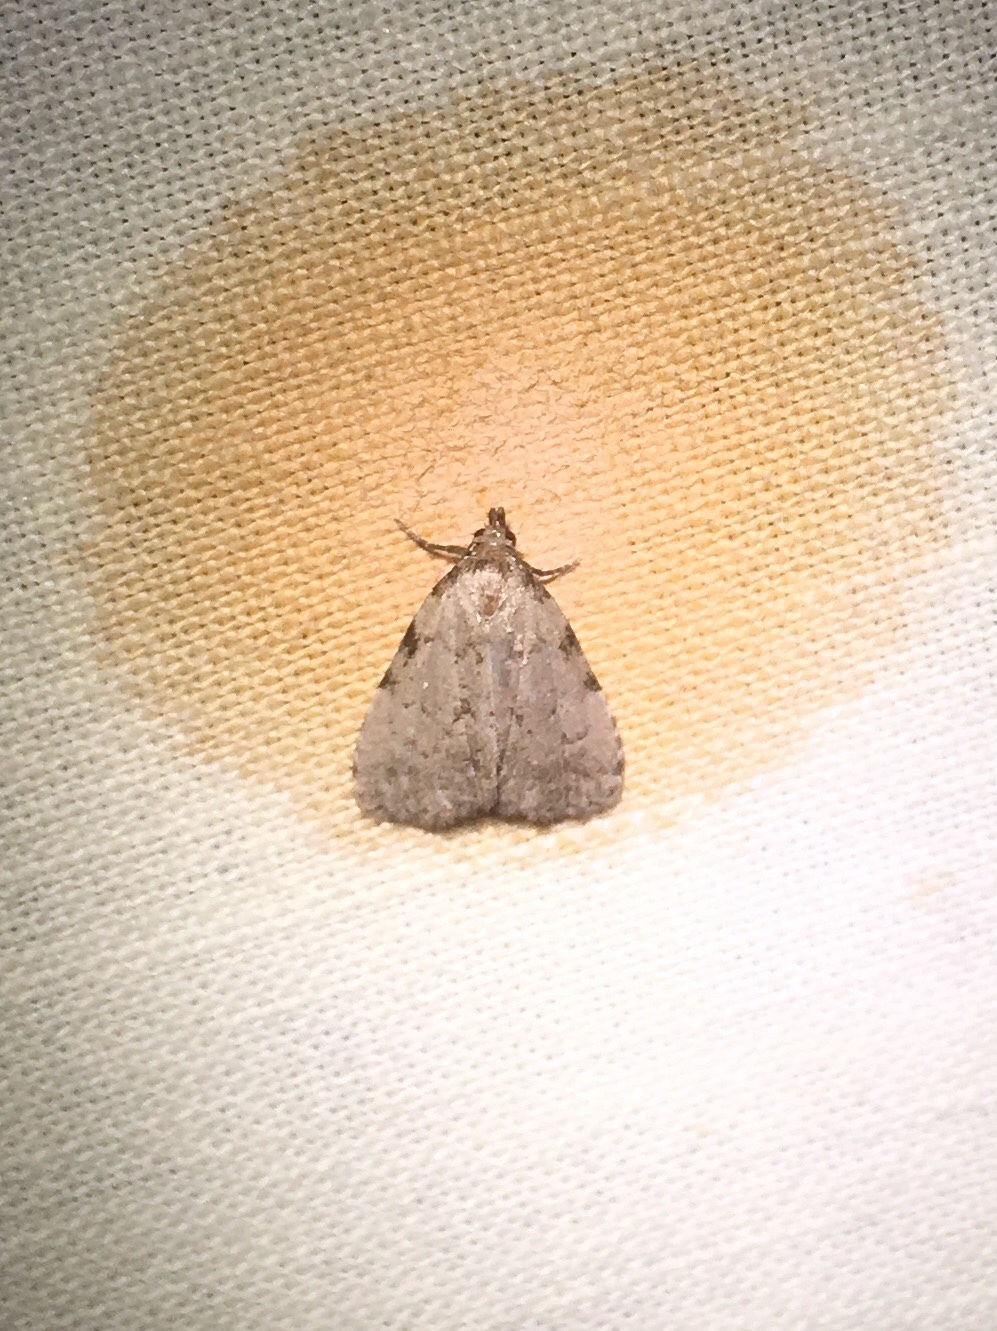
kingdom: Animalia
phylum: Arthropoda
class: Insecta
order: Lepidoptera
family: Erebidae
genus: Dyspyralis
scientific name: Dyspyralis puncticosta
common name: Spot-edged dyspyralis moth
